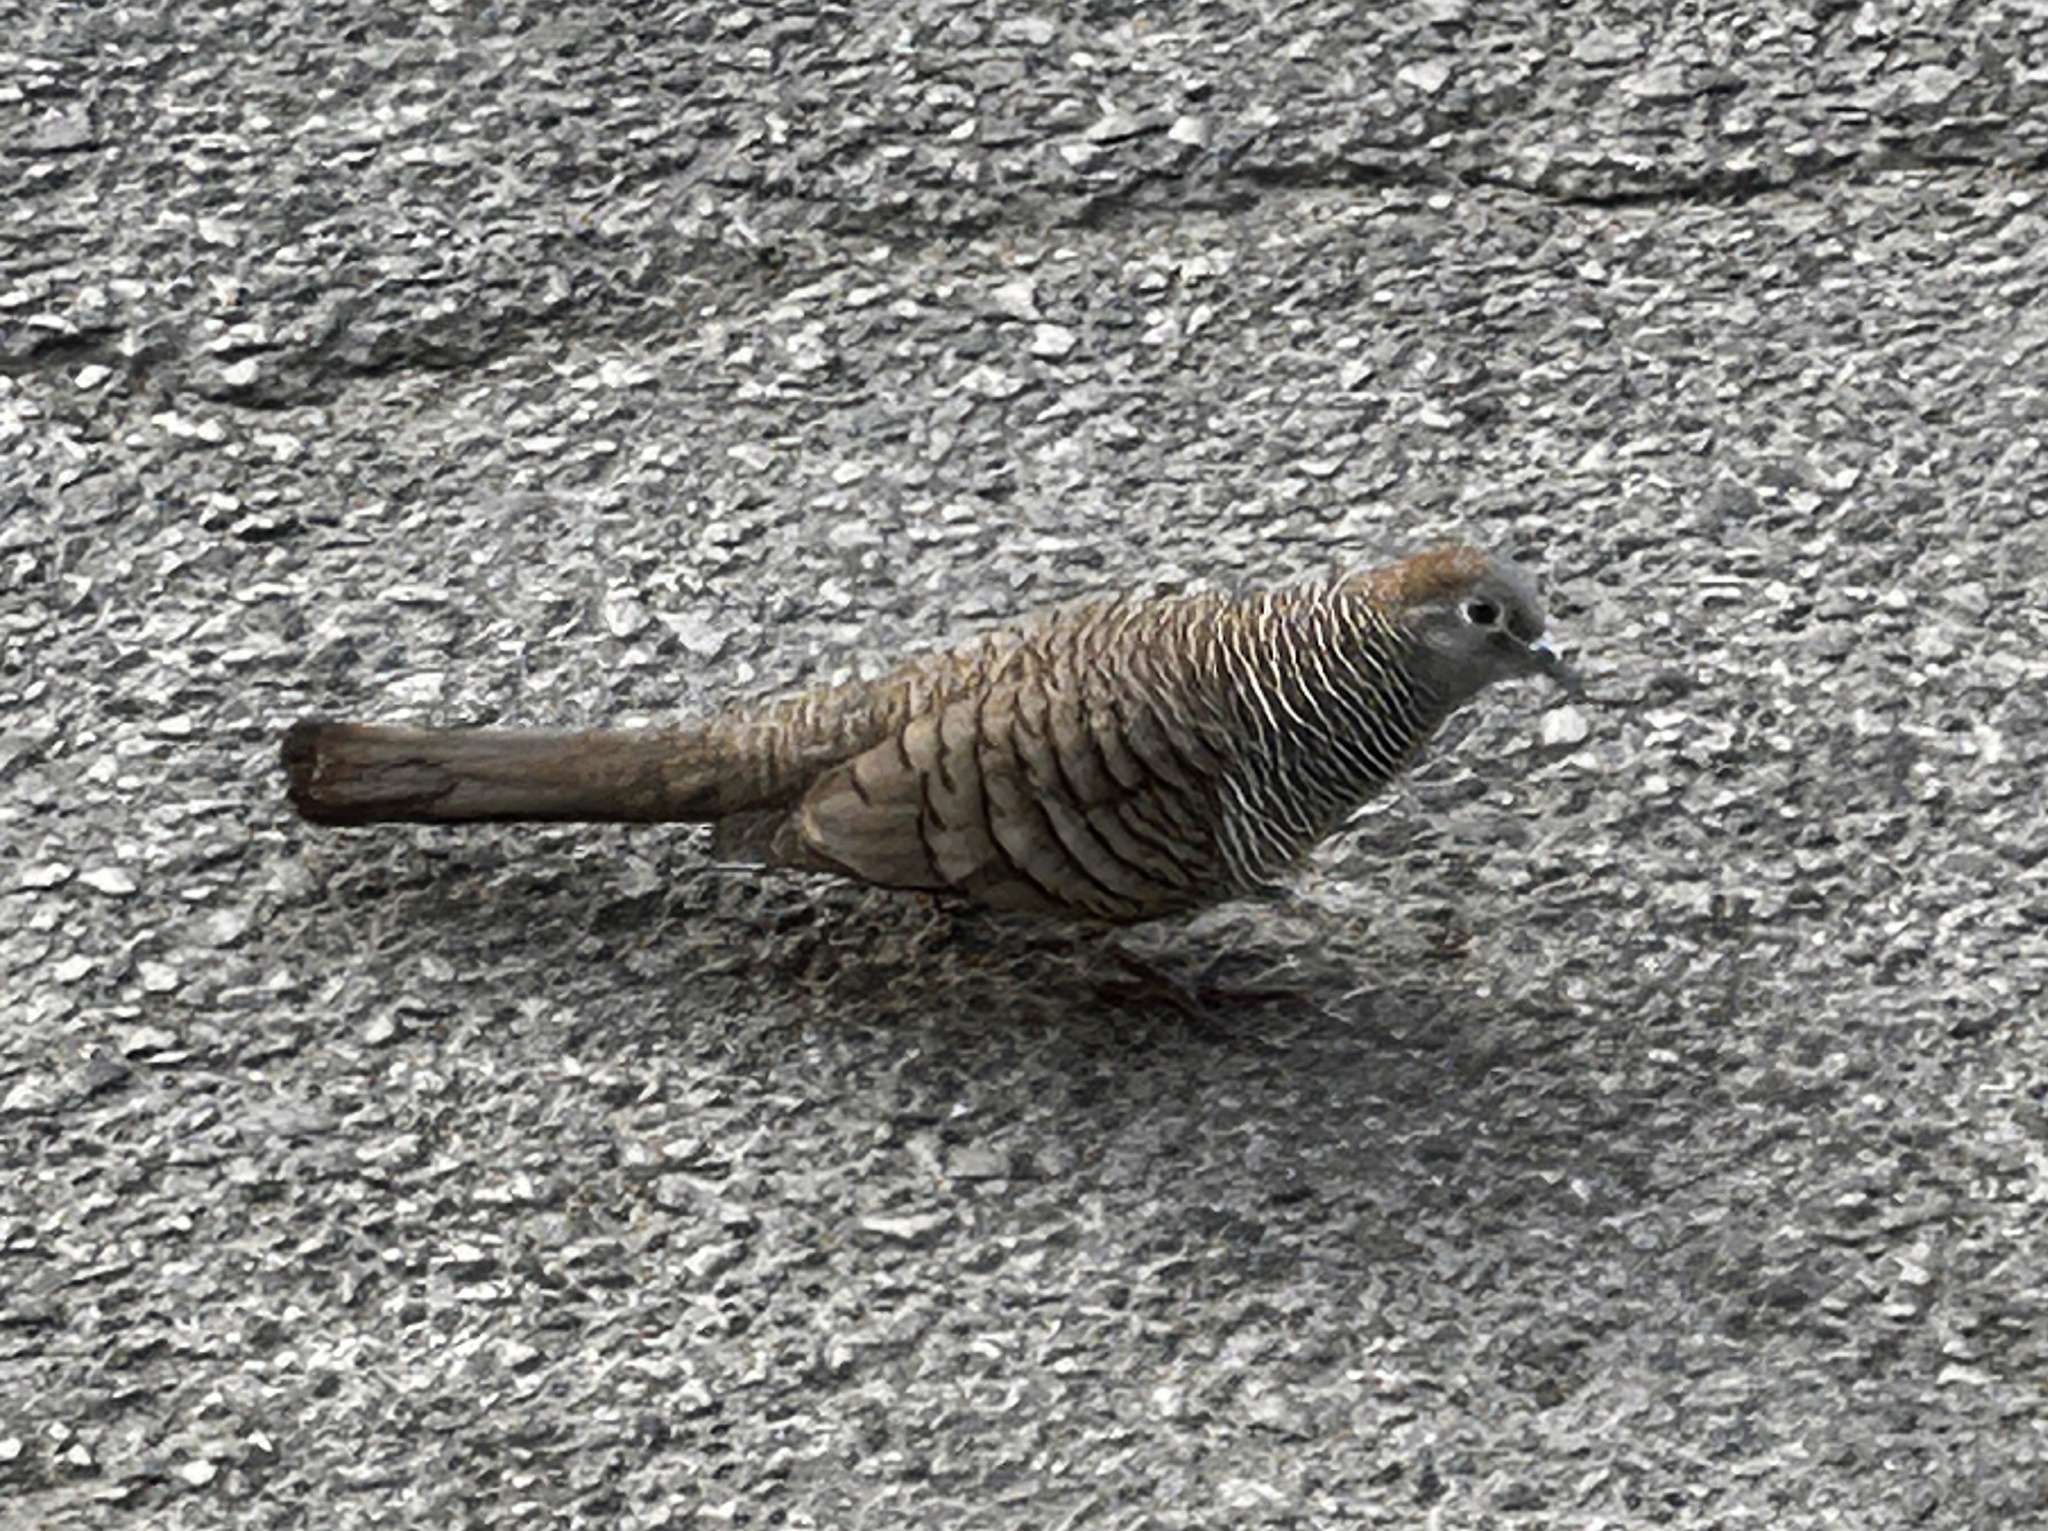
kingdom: Animalia
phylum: Chordata
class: Aves
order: Columbiformes
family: Columbidae
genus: Geopelia
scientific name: Geopelia striata
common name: Zebra dove
